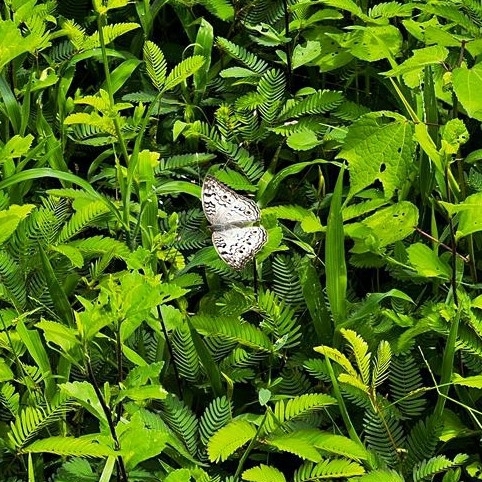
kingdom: Animalia
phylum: Arthropoda
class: Insecta
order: Lepidoptera
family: Nymphalidae
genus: Junonia
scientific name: Junonia atlites
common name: Grey pansy
